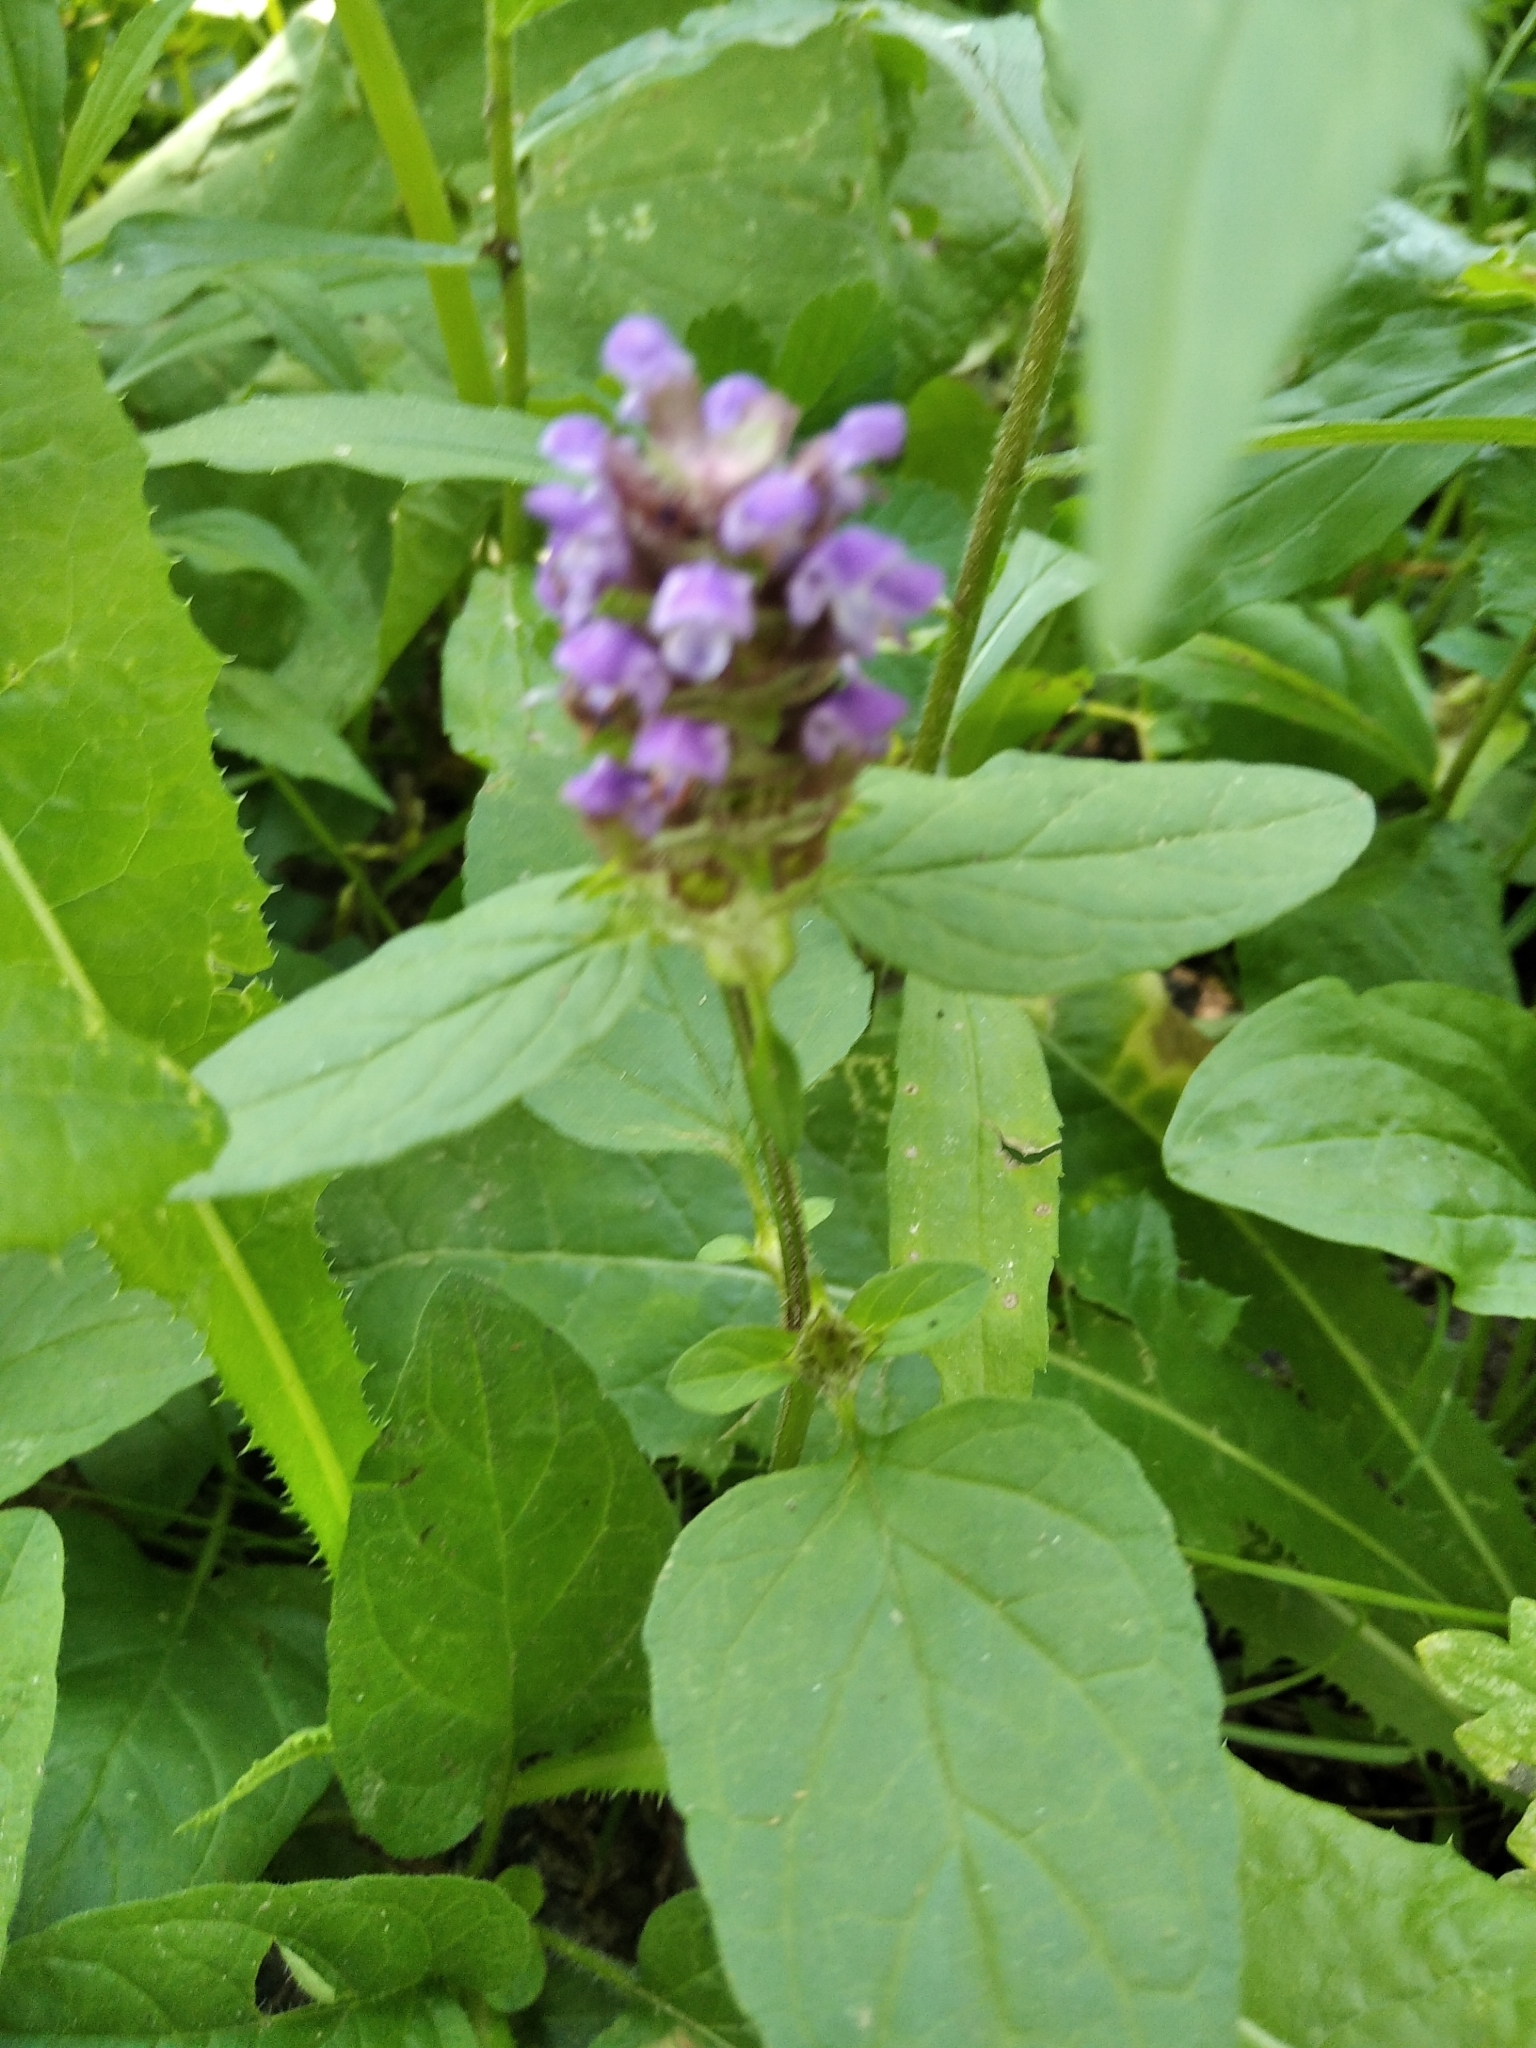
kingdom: Plantae
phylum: Tracheophyta
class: Magnoliopsida
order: Lamiales
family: Lamiaceae
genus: Prunella
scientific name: Prunella vulgaris
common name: Heal-all
